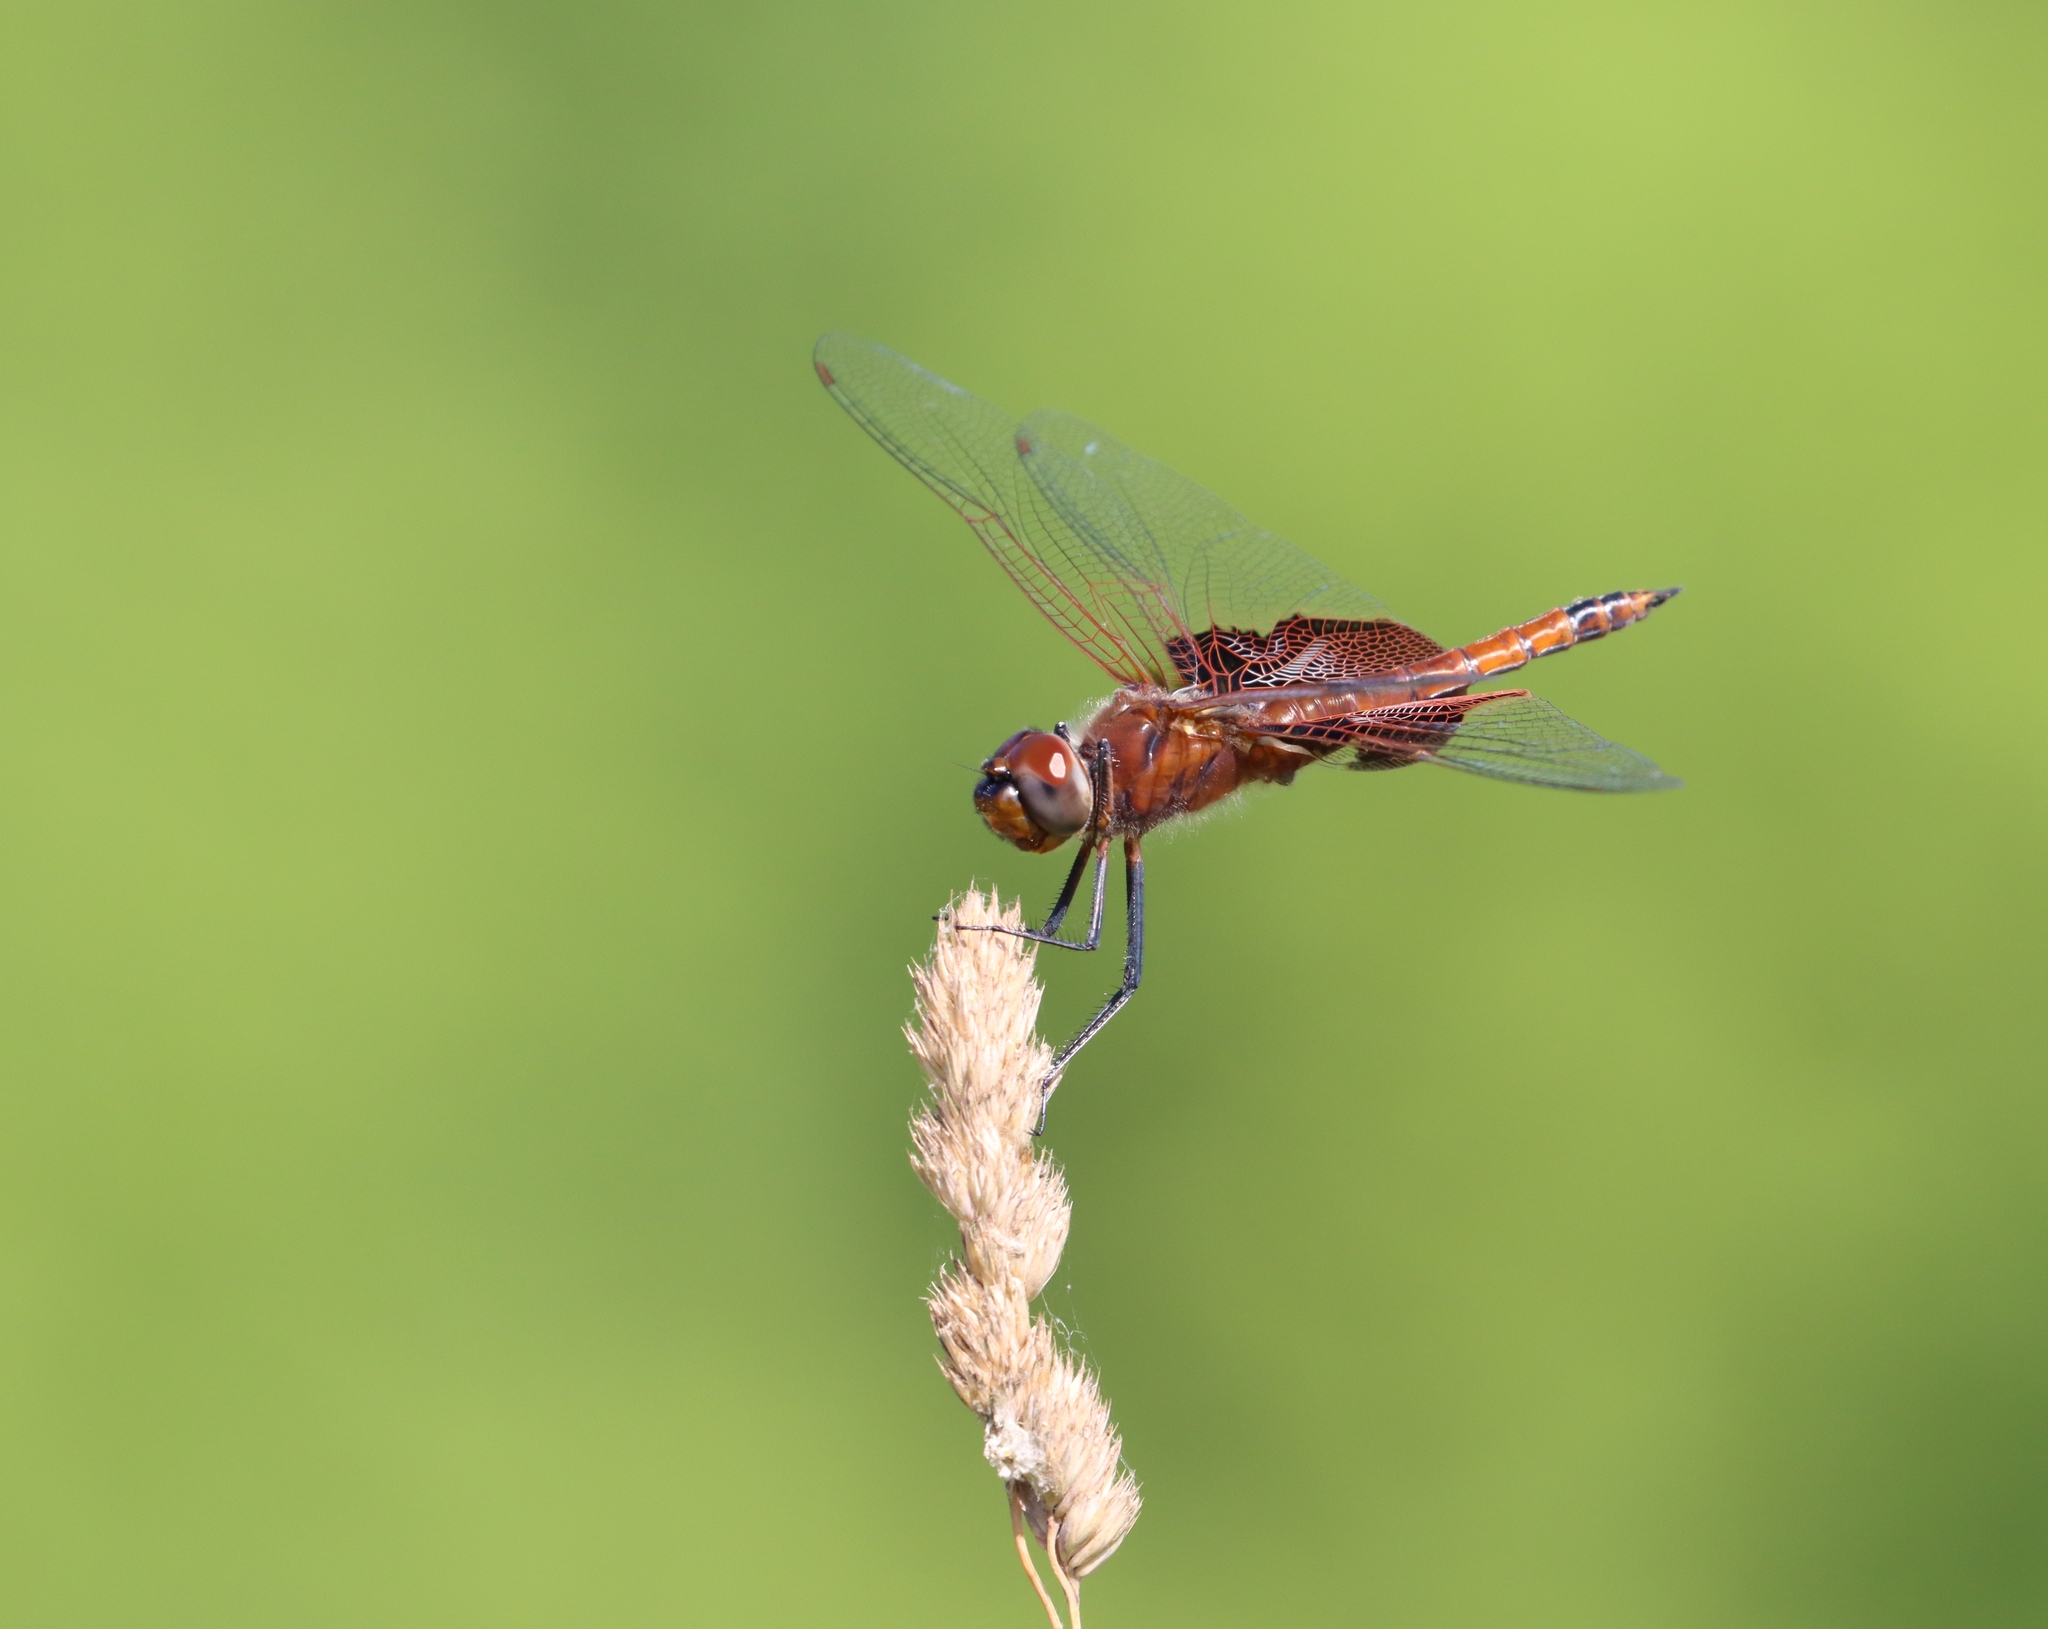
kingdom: Animalia
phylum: Arthropoda
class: Insecta
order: Odonata
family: Libellulidae
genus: Tramea
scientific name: Tramea carolina
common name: Carolina saddlebags
